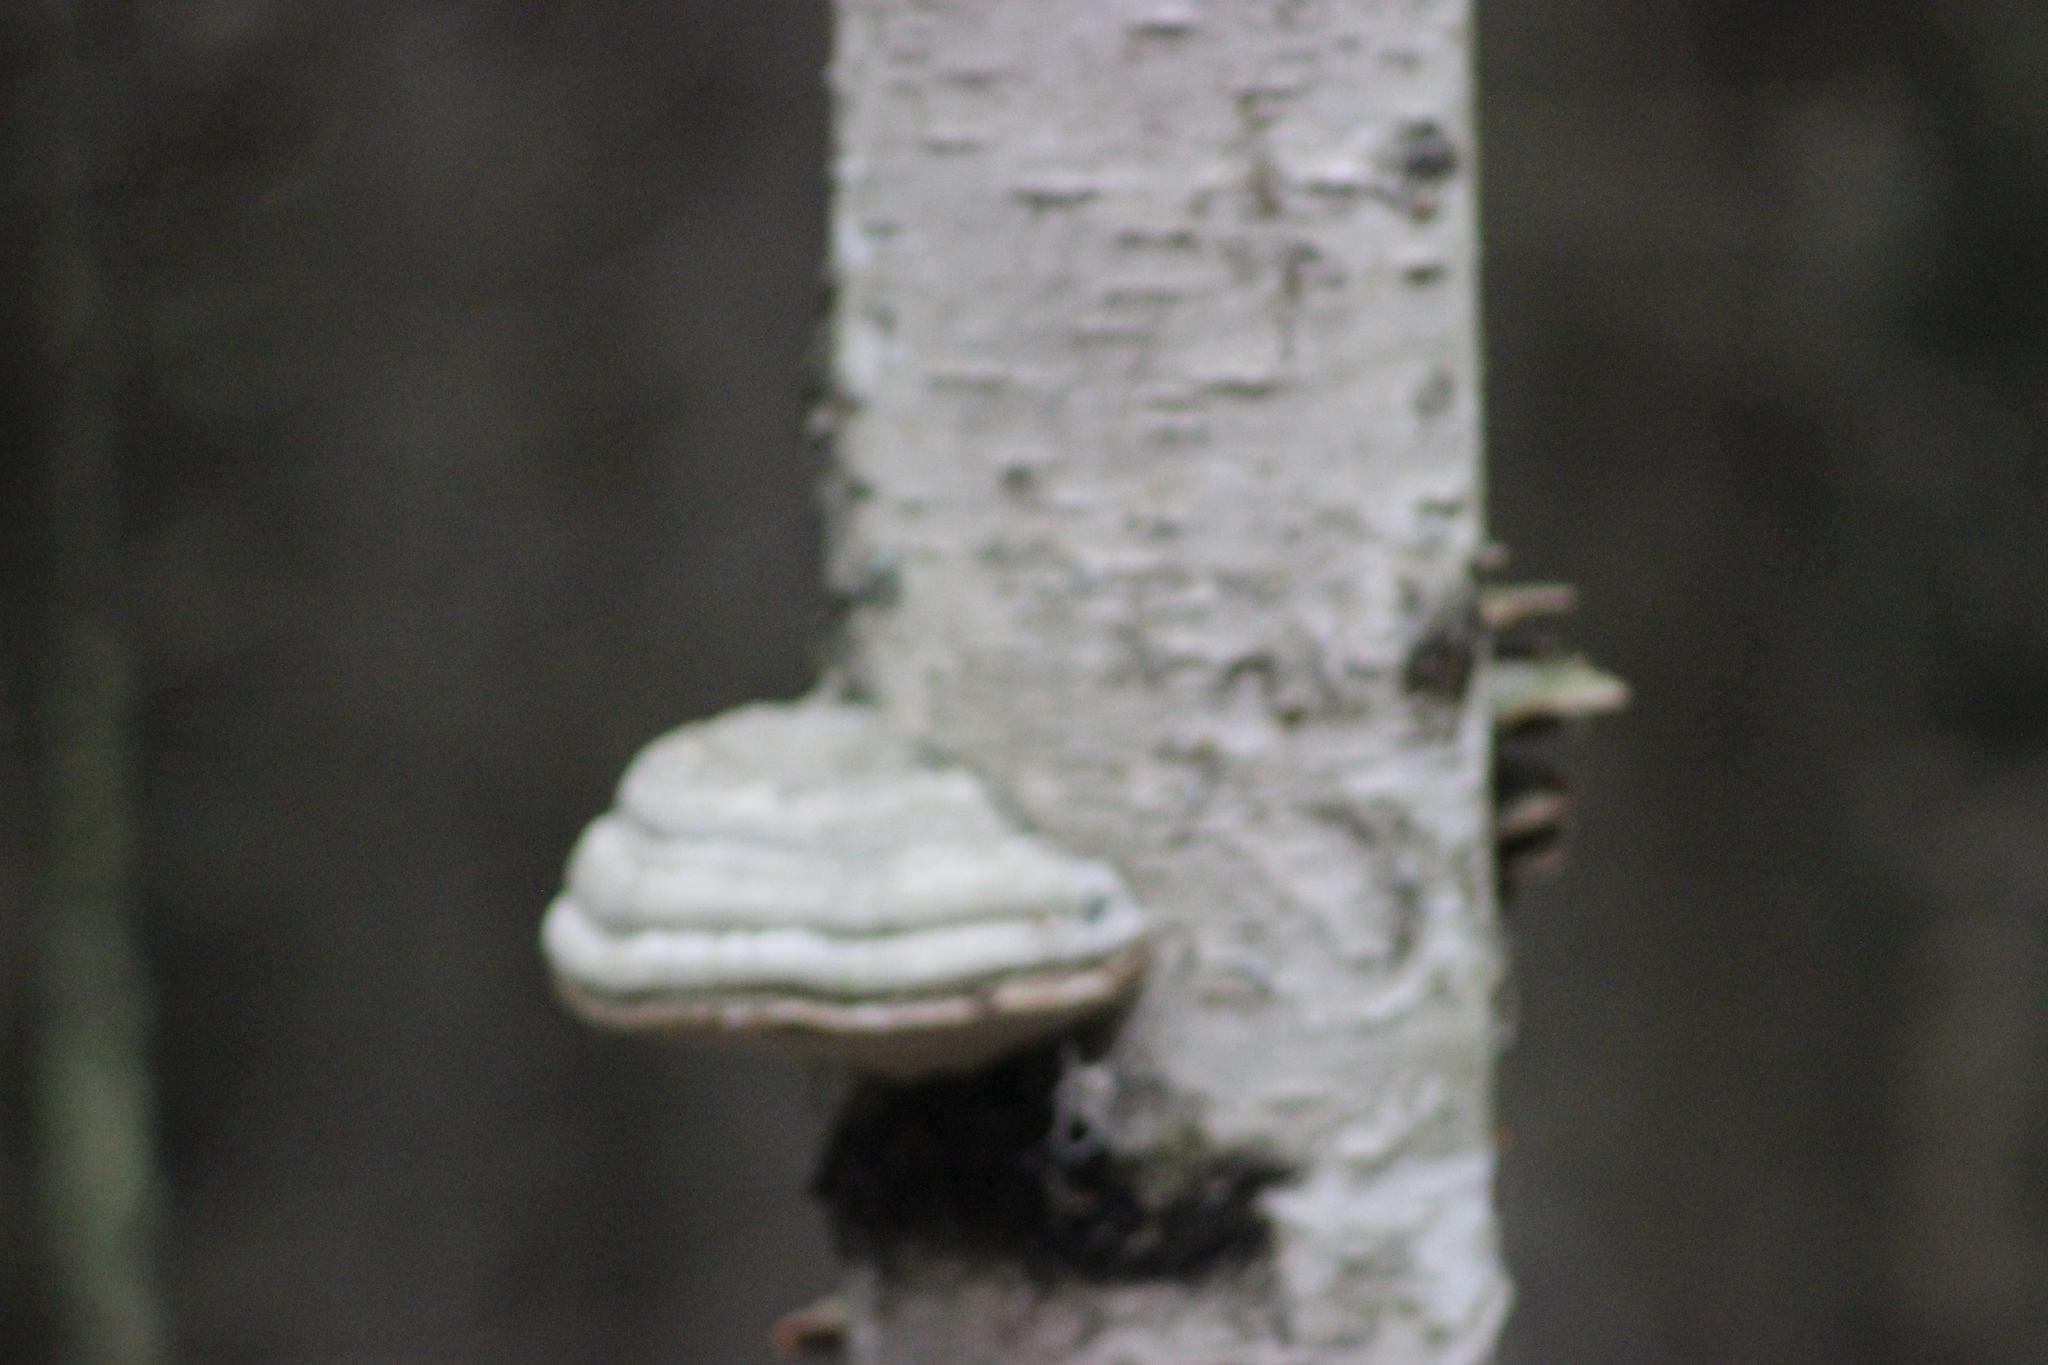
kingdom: Fungi
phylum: Basidiomycota
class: Agaricomycetes
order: Polyporales
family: Polyporaceae
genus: Fomes
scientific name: Fomes fomentarius
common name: Hoof fungus
